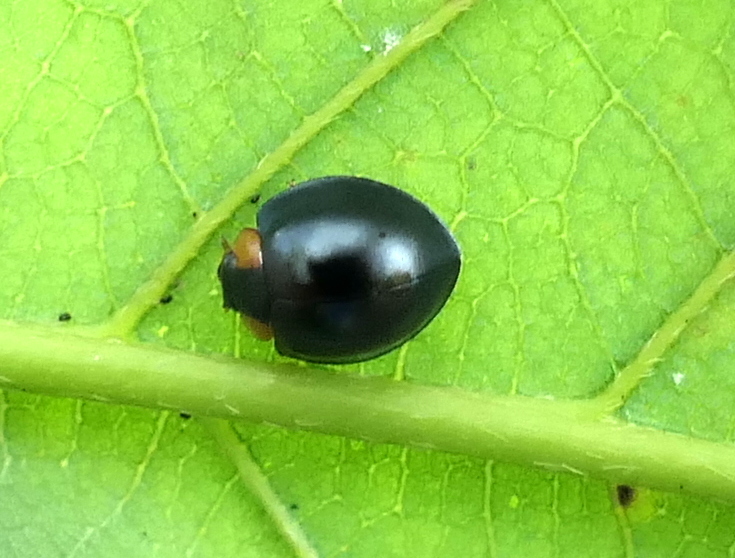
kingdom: Animalia
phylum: Arthropoda
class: Insecta
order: Coleoptera
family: Coccinellidae
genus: Curinus
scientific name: Curinus
